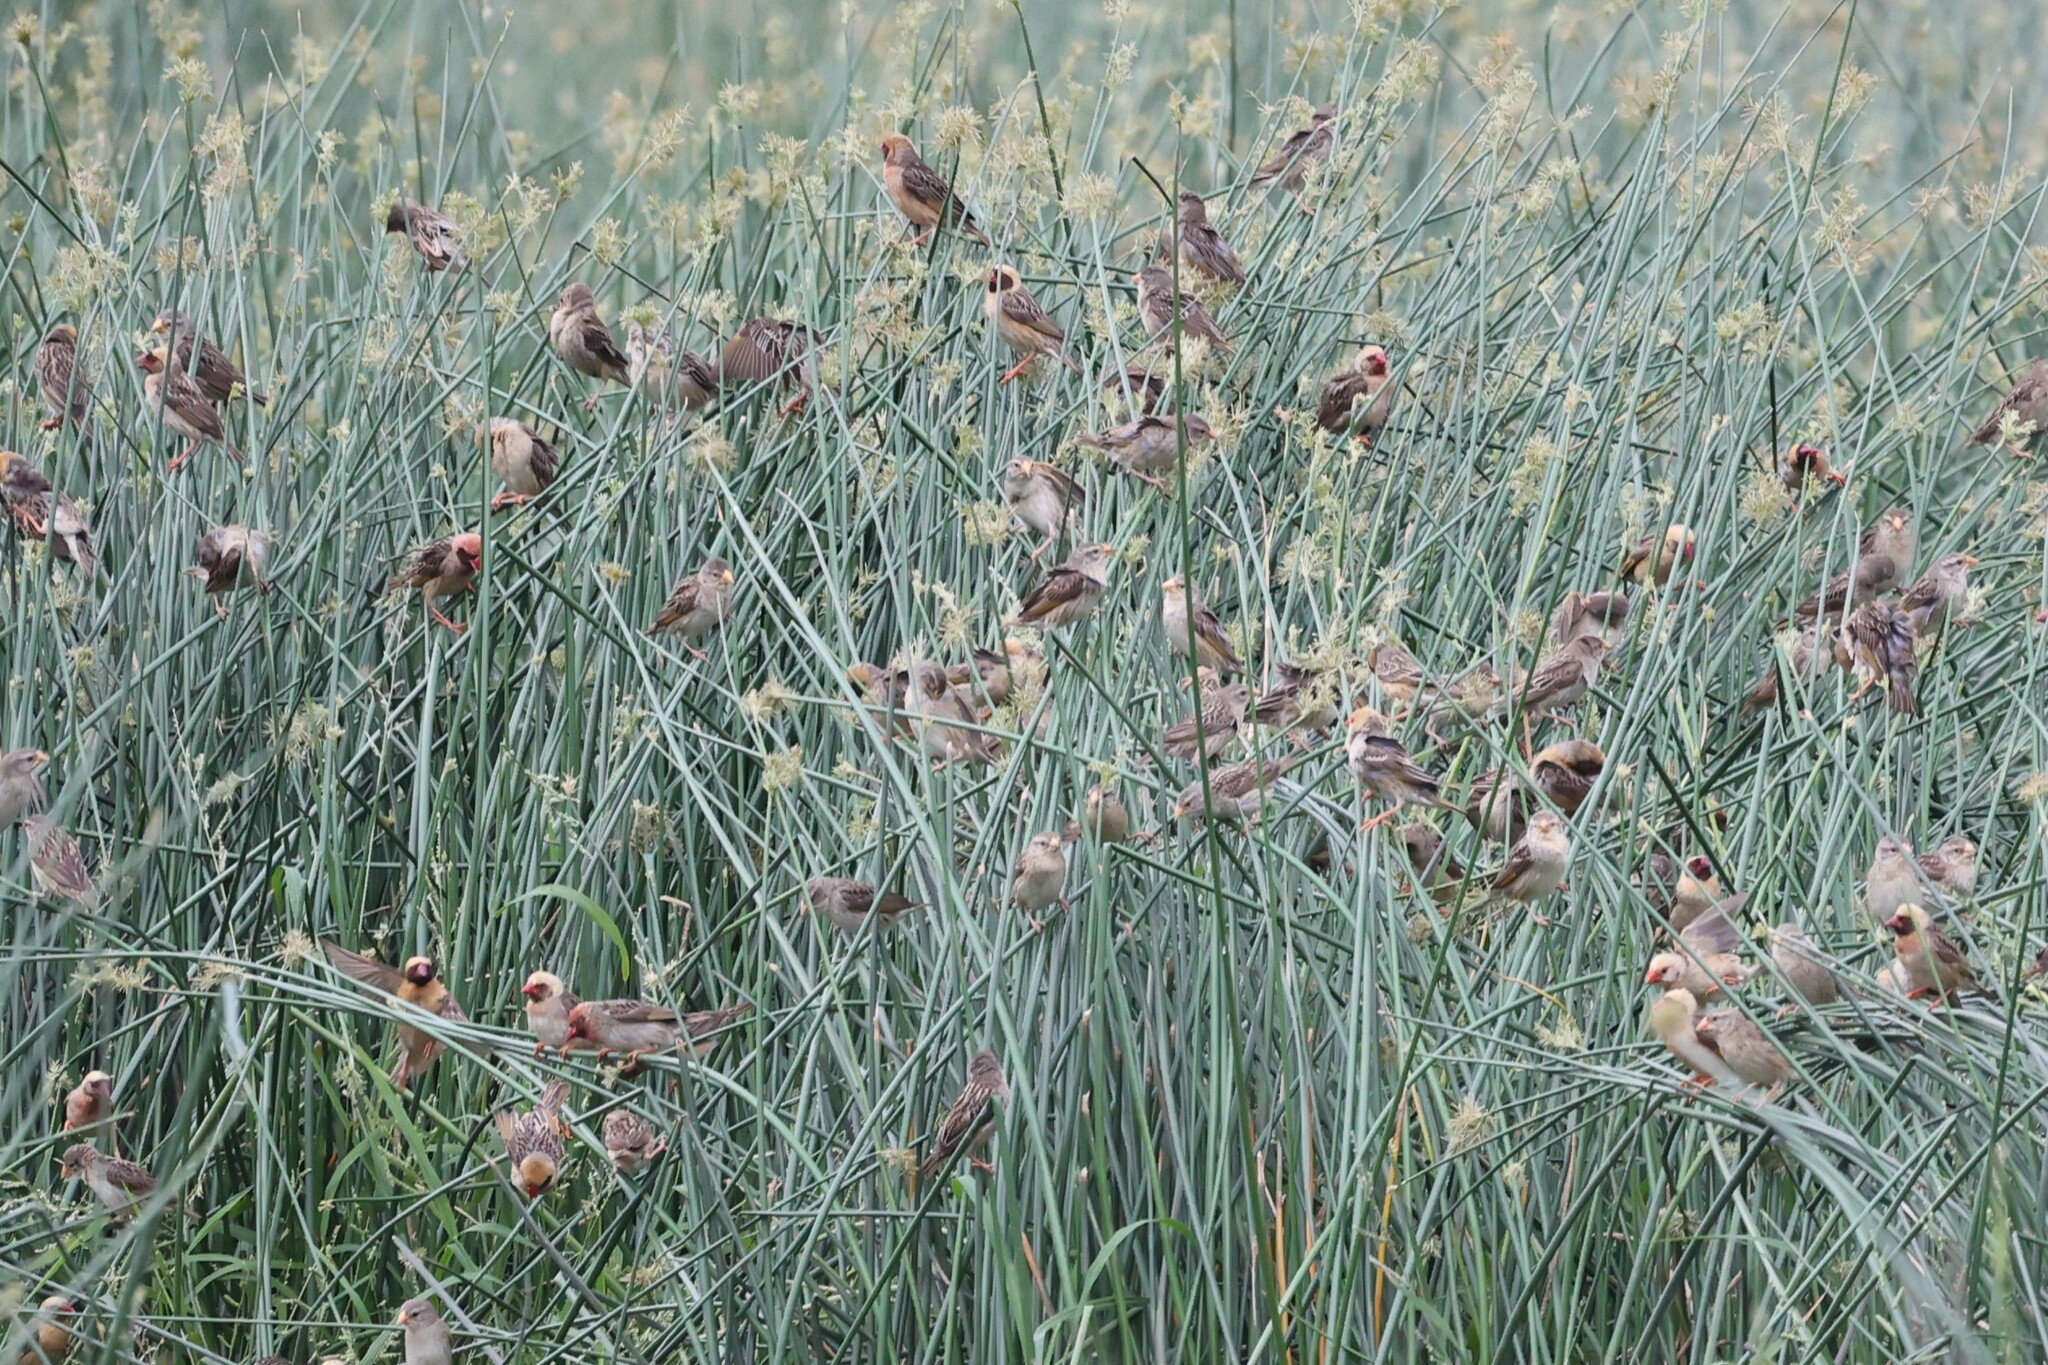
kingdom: Animalia
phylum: Chordata
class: Aves
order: Passeriformes
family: Ploceidae
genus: Quelea
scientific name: Quelea quelea
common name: Red-billed quelea
